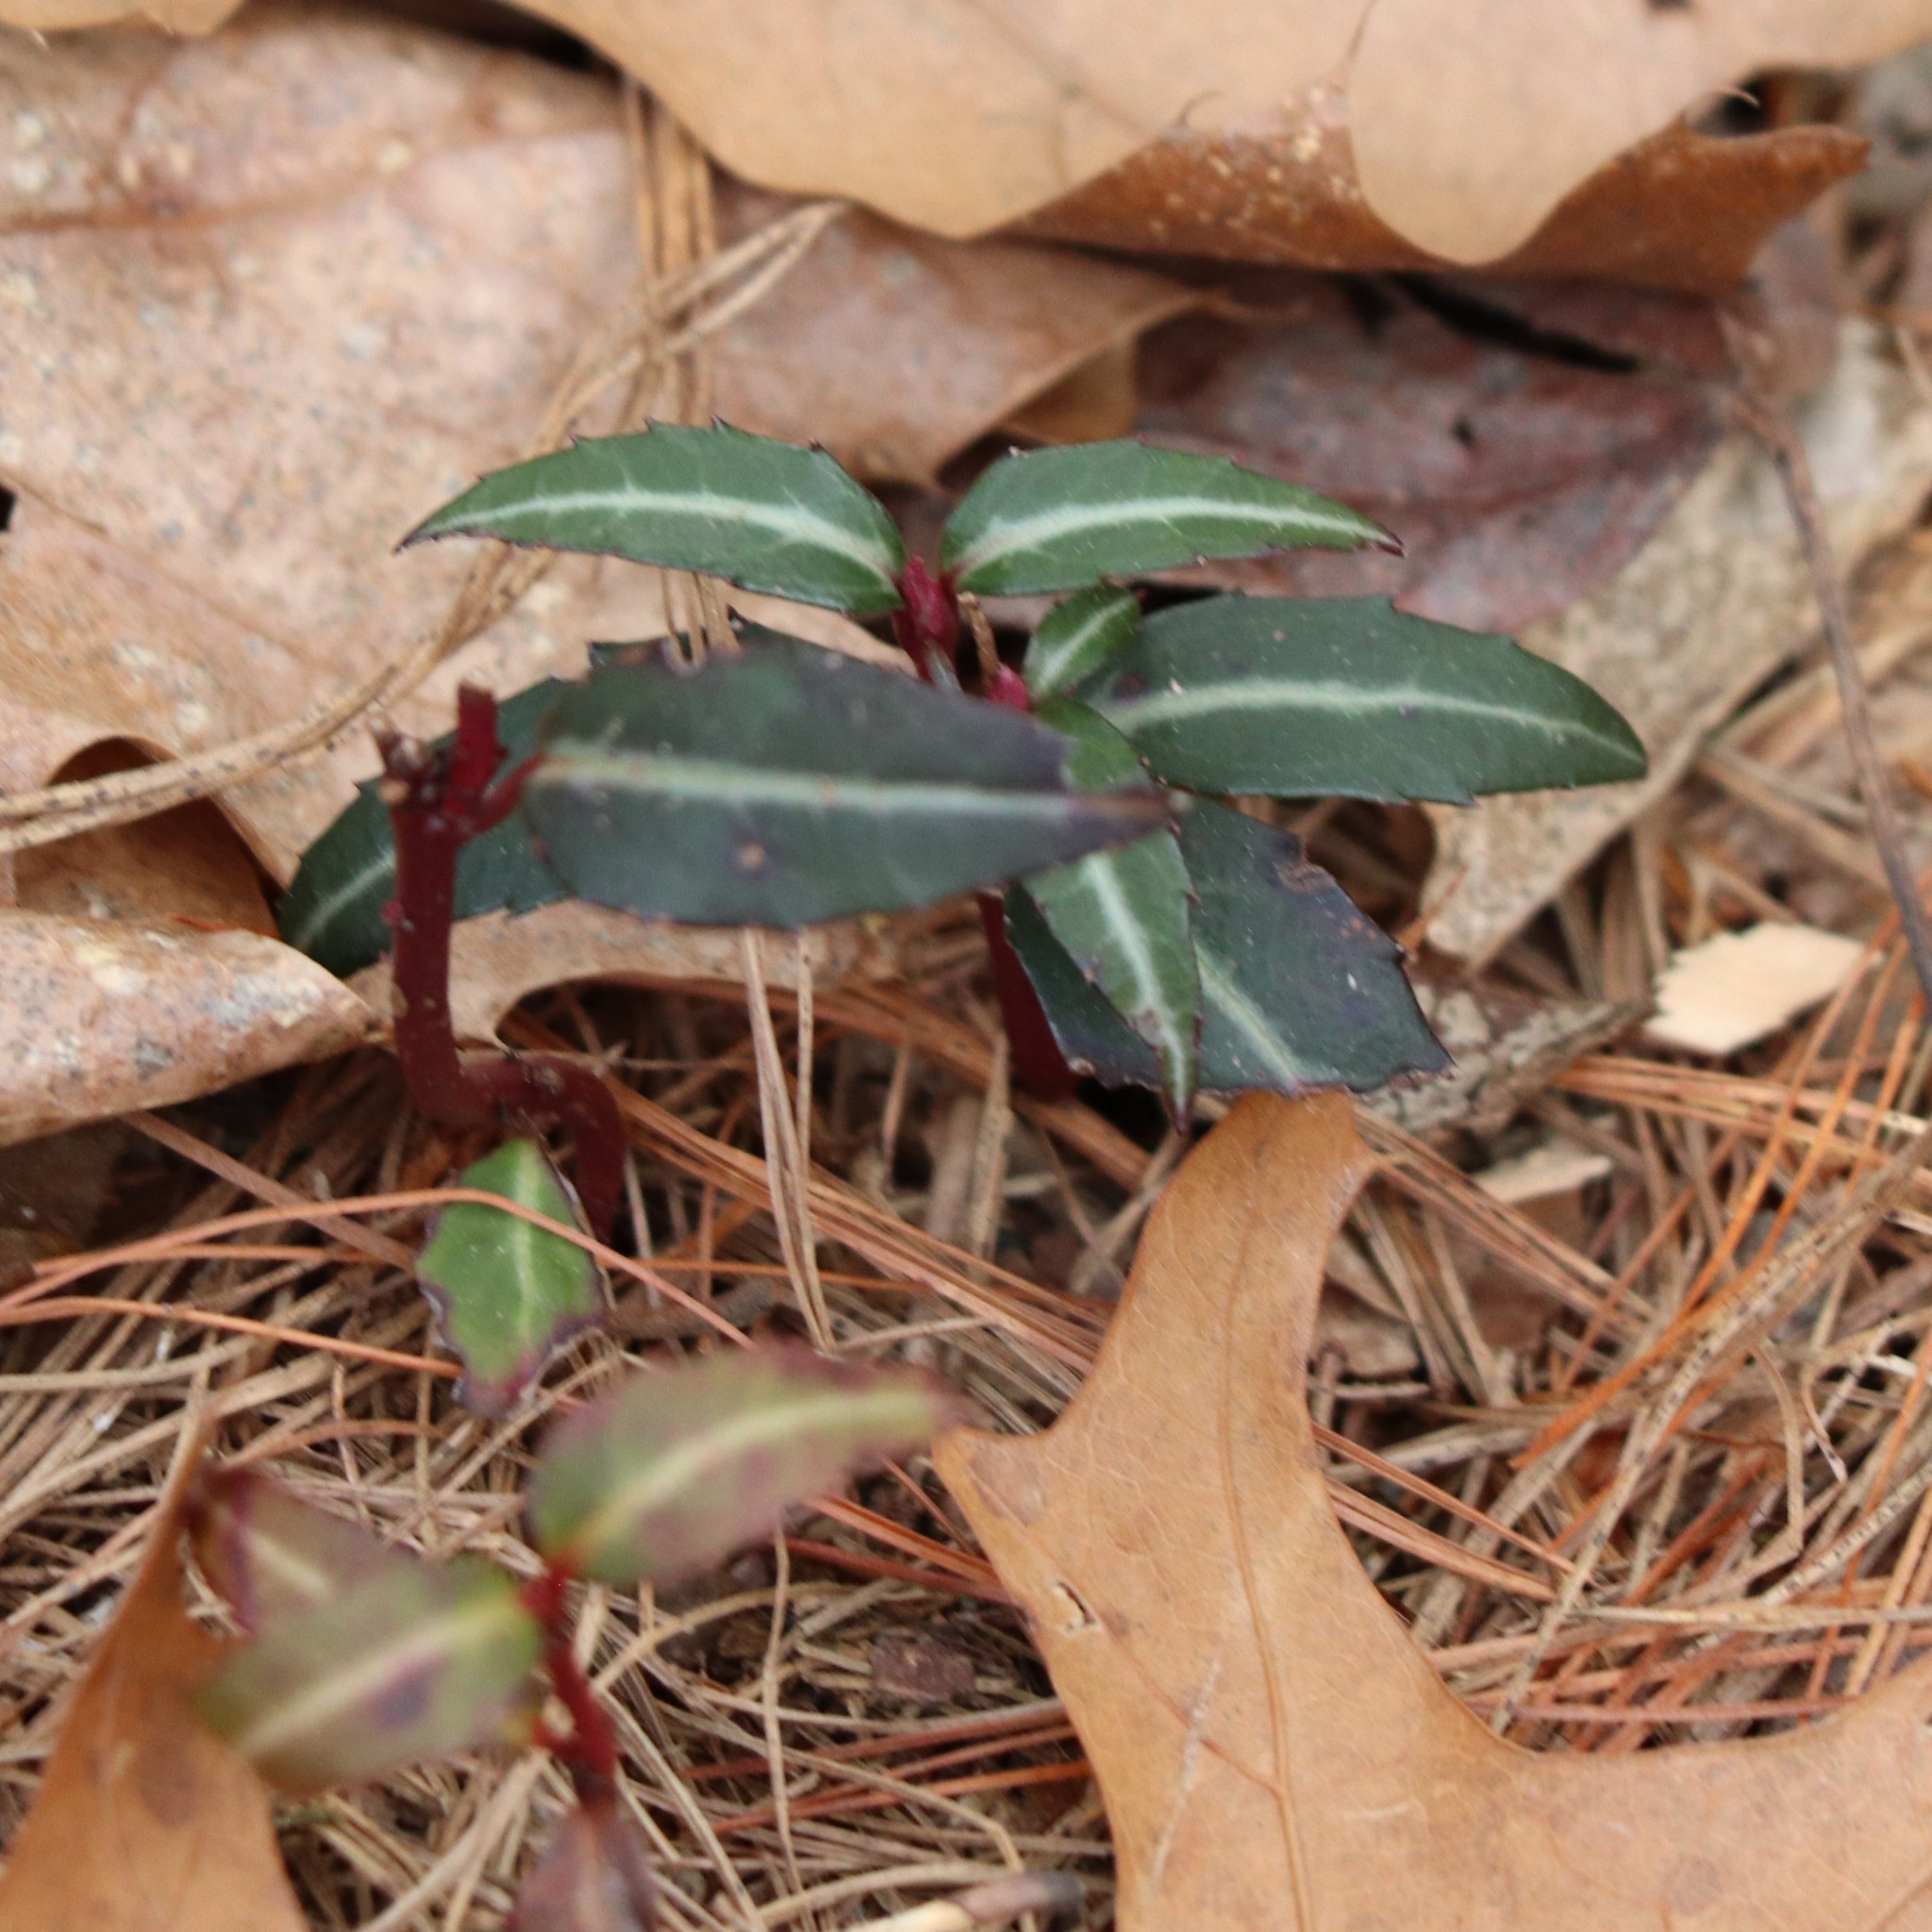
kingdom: Plantae
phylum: Tracheophyta
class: Magnoliopsida
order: Ericales
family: Ericaceae
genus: Chimaphila
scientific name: Chimaphila maculata
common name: Spotted pipsissewa
